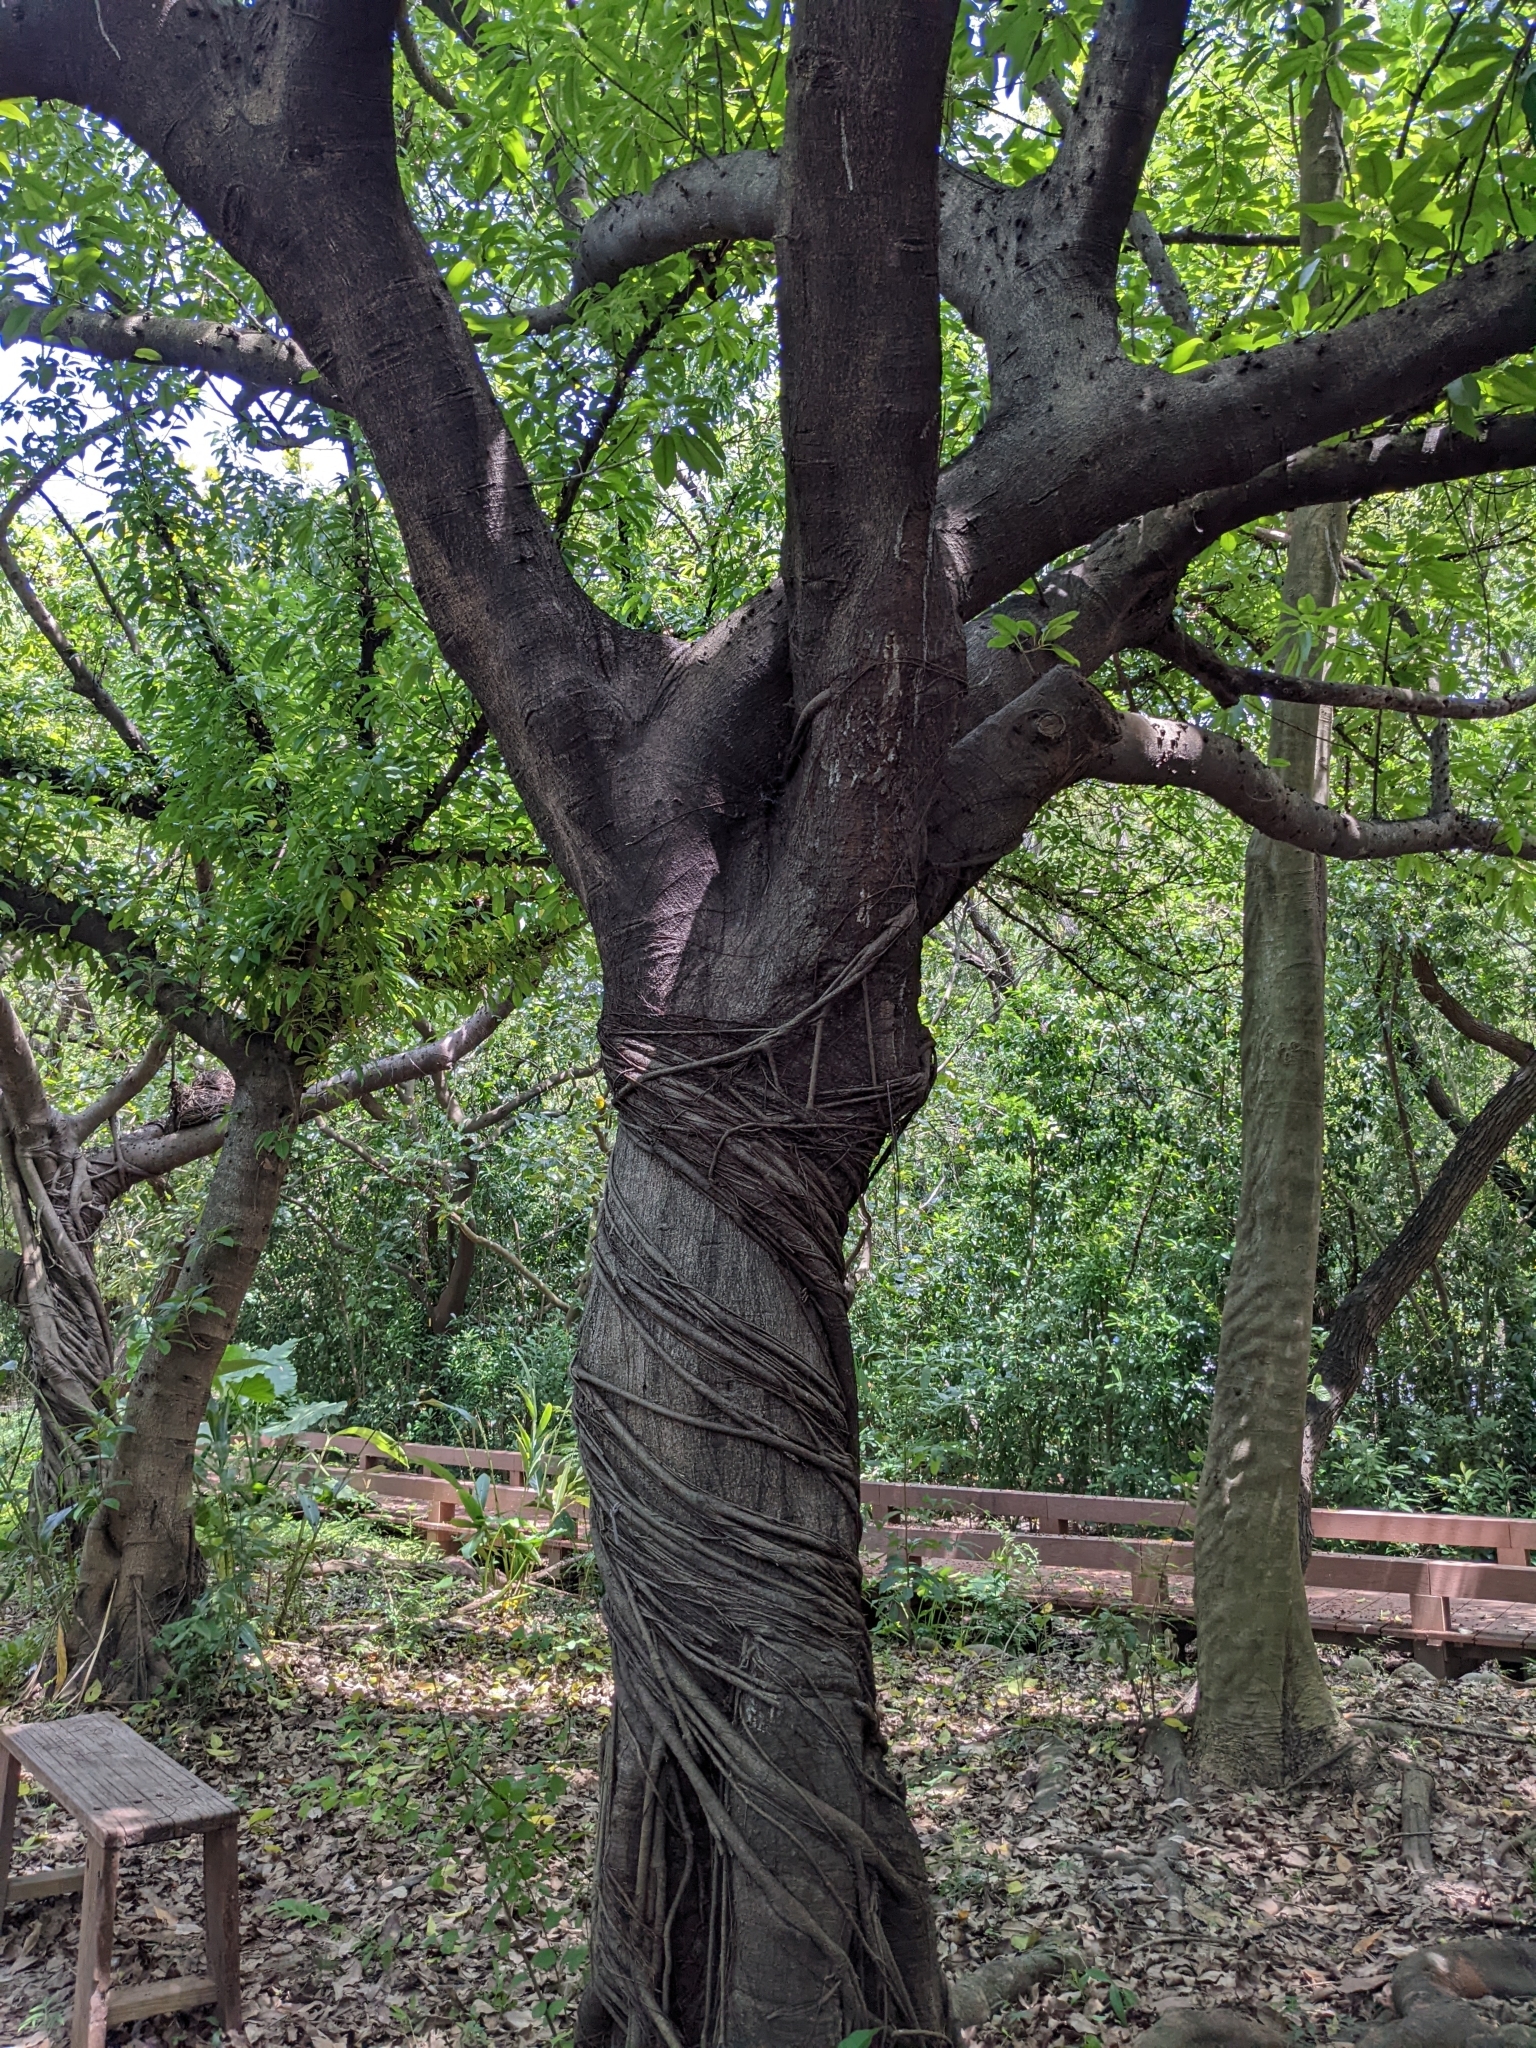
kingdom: Plantae
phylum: Tracheophyta
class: Magnoliopsida
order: Rosales
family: Moraceae
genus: Ficus
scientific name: Ficus subpisocarpa
